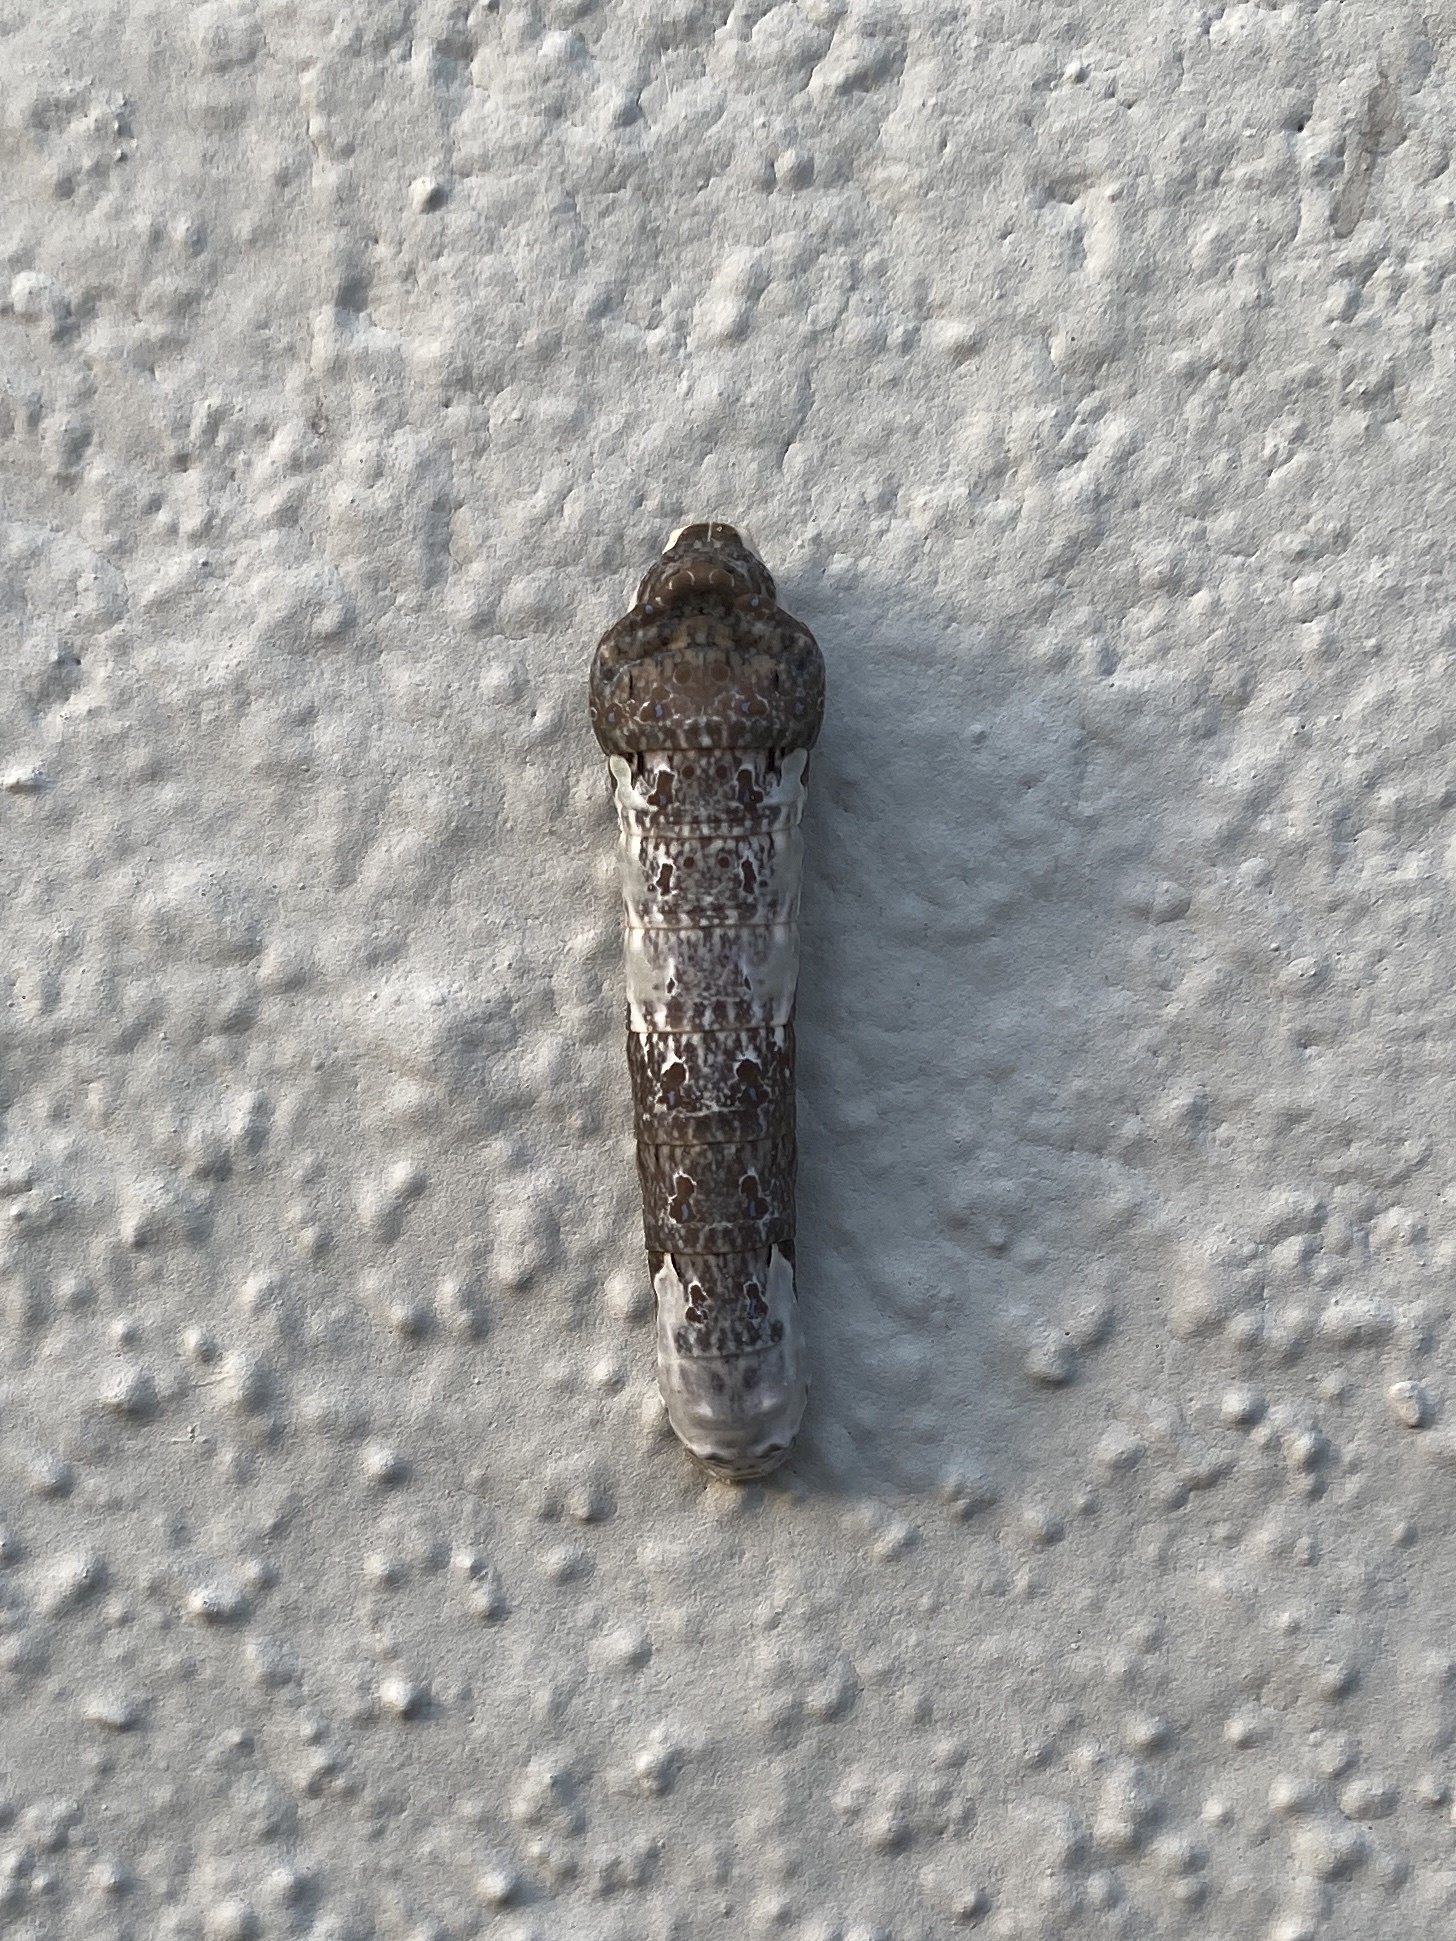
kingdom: Animalia
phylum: Arthropoda
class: Insecta
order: Lepidoptera
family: Papilionidae
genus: Papilio
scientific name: Papilio rumiko
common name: Western giant swallowtail
